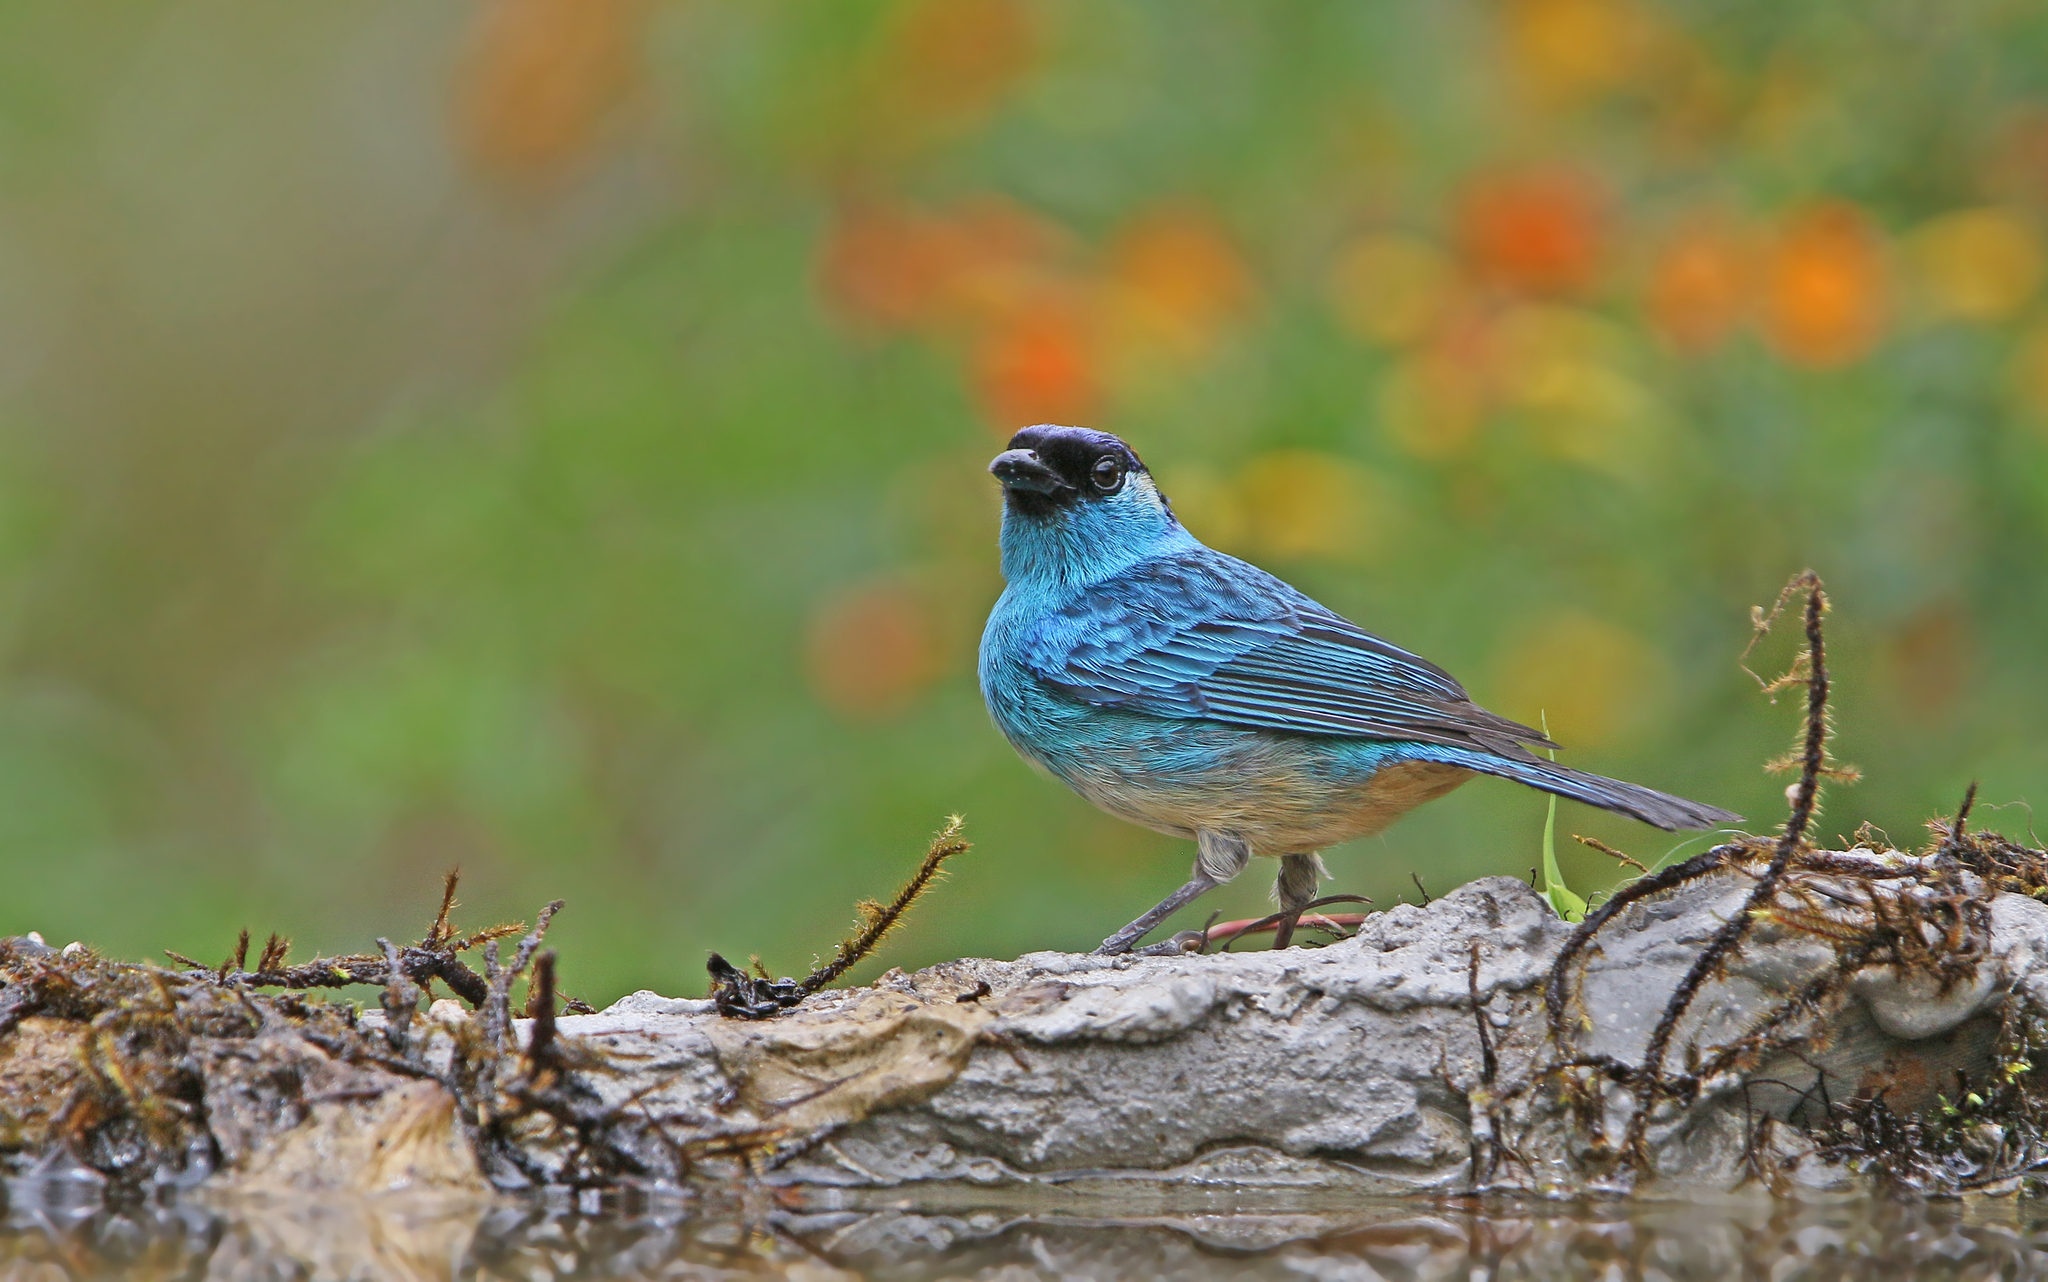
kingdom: Animalia
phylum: Chordata
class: Aves
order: Passeriformes
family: Thraupidae
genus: Chalcothraupis
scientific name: Chalcothraupis ruficervix
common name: Golden-naped tanager
